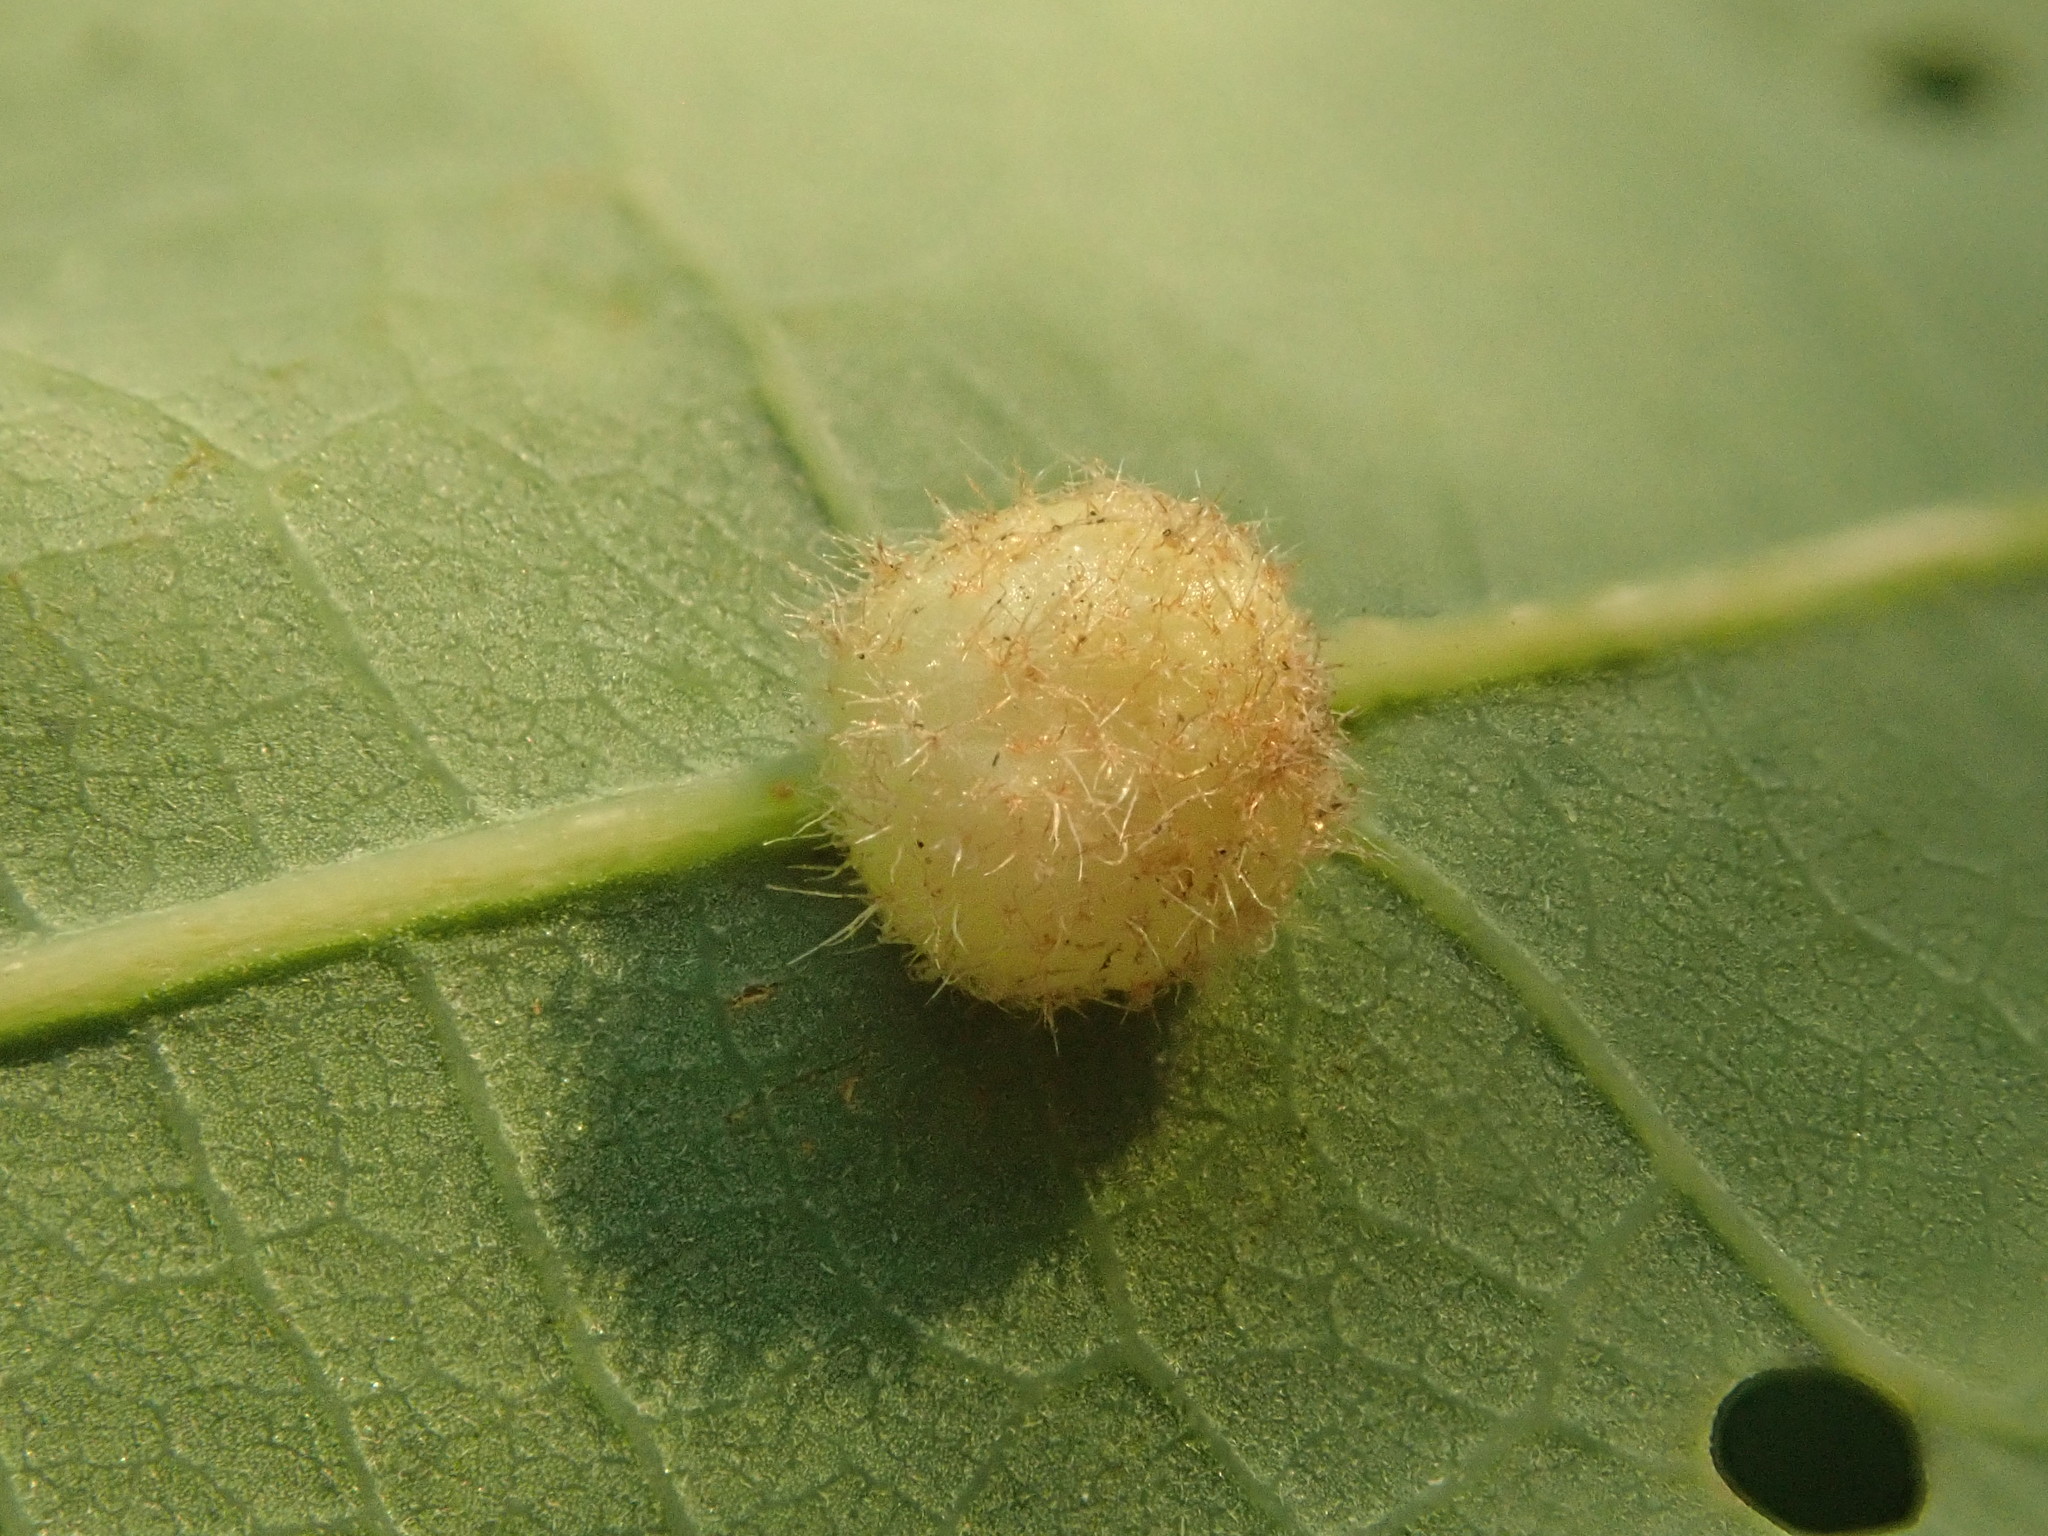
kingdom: Animalia
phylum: Arthropoda
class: Insecta
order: Hymenoptera
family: Cynipidae
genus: Philonix
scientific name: Philonix fulvicollis
